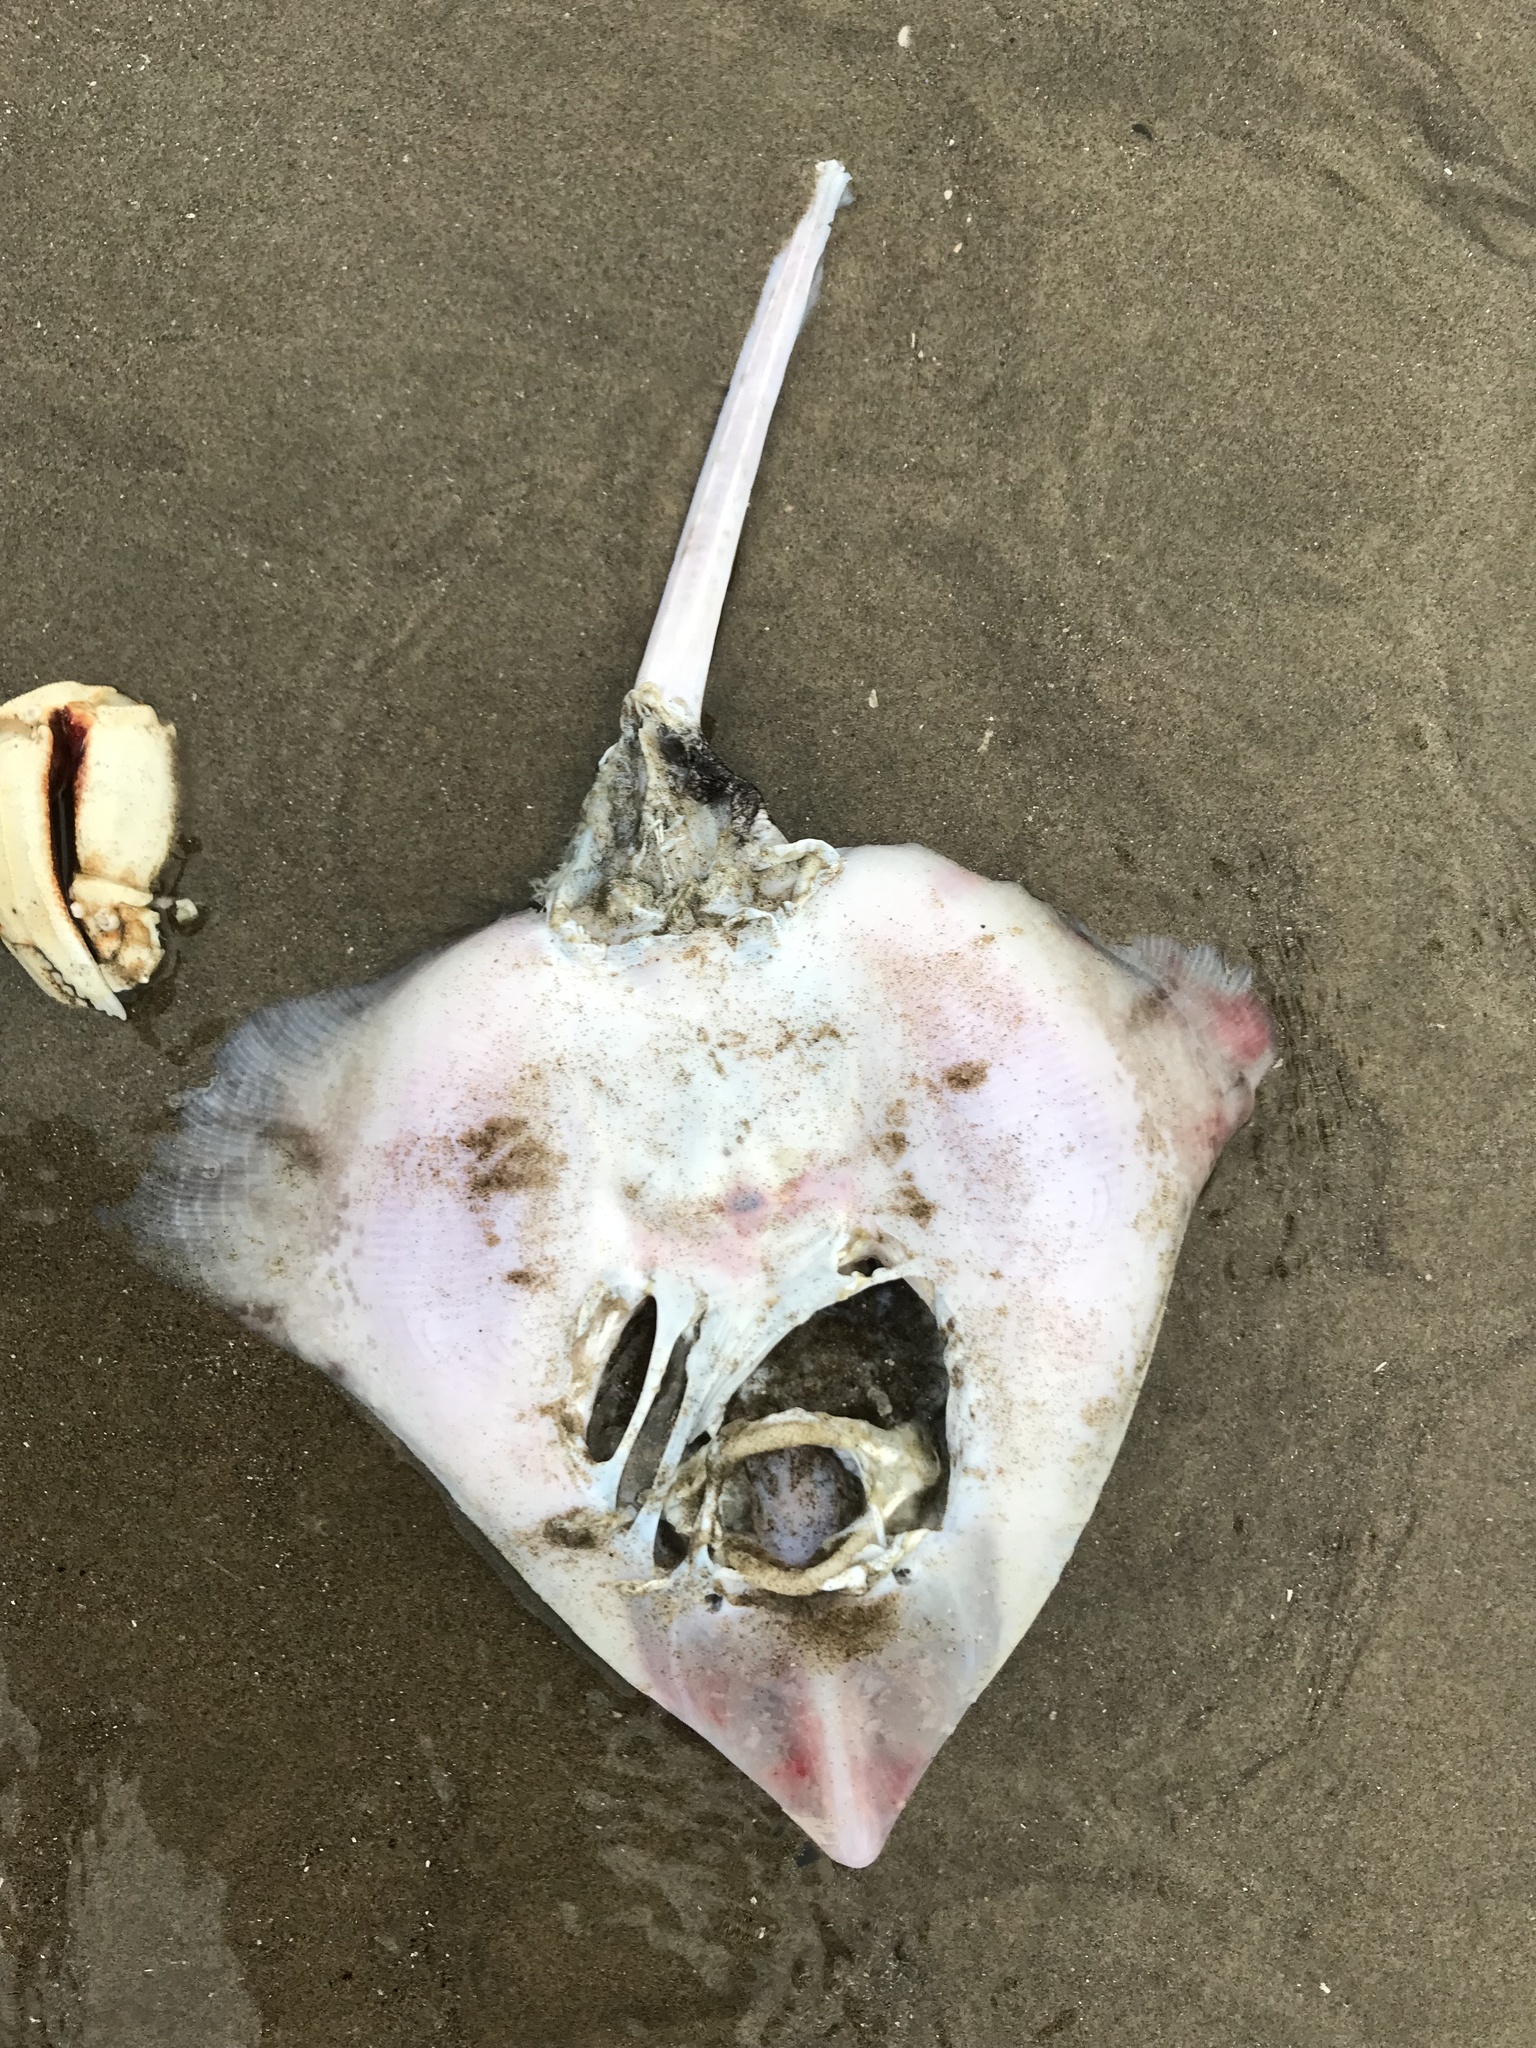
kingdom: Animalia
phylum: Chordata
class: Elasmobranchii
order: Rajiformes
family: Rajidae
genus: Beringraja
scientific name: Beringraja binoculata
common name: Big skate
